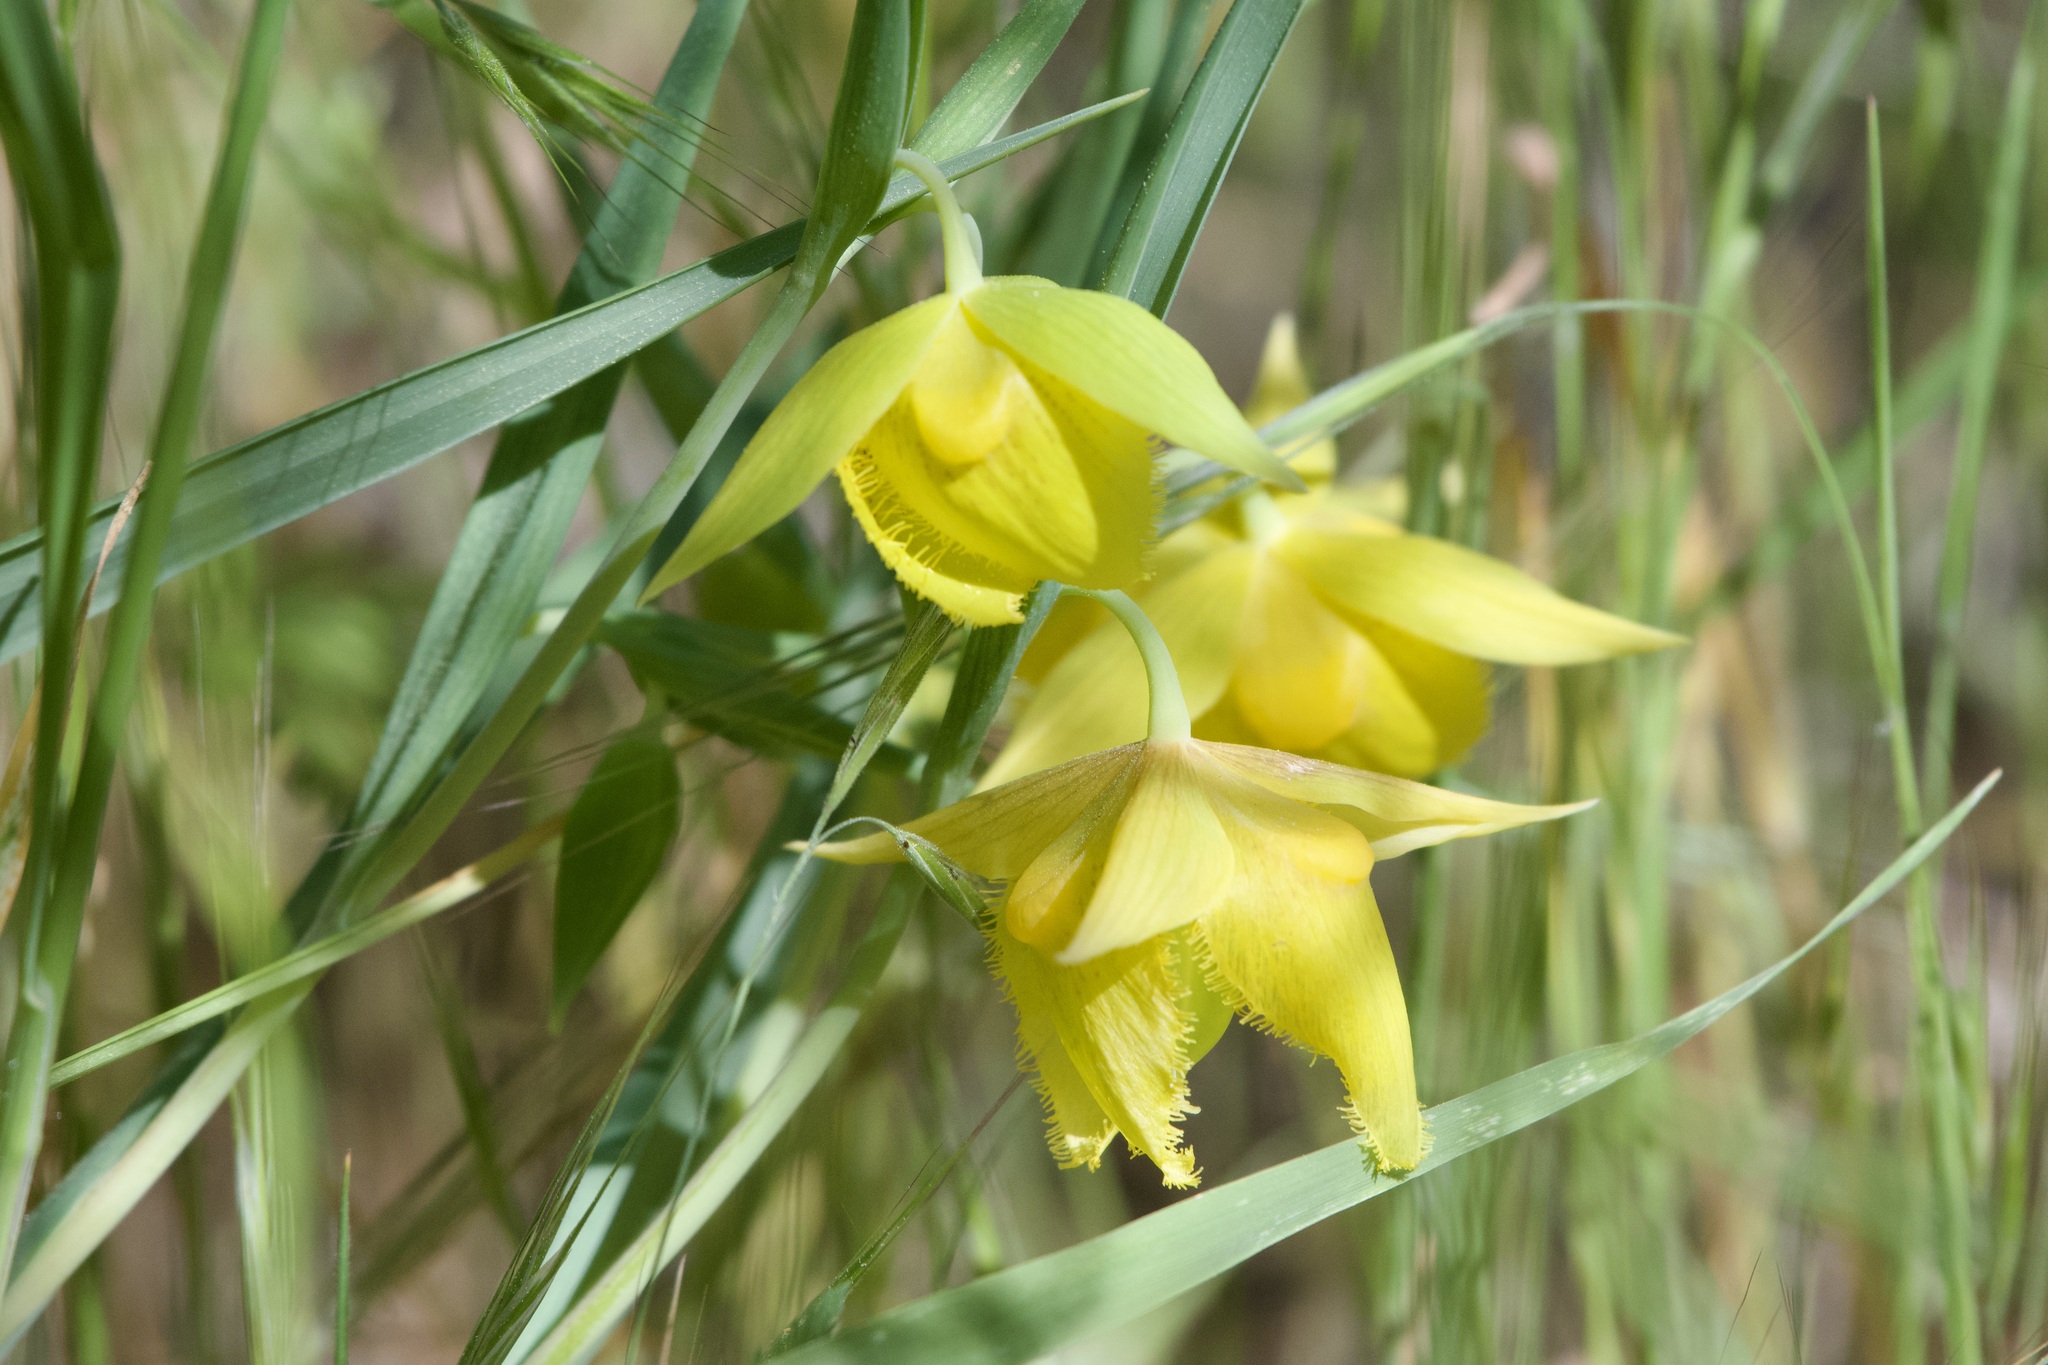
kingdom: Plantae
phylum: Tracheophyta
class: Liliopsida
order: Liliales
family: Liliaceae
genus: Calochortus
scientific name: Calochortus pulchellus
